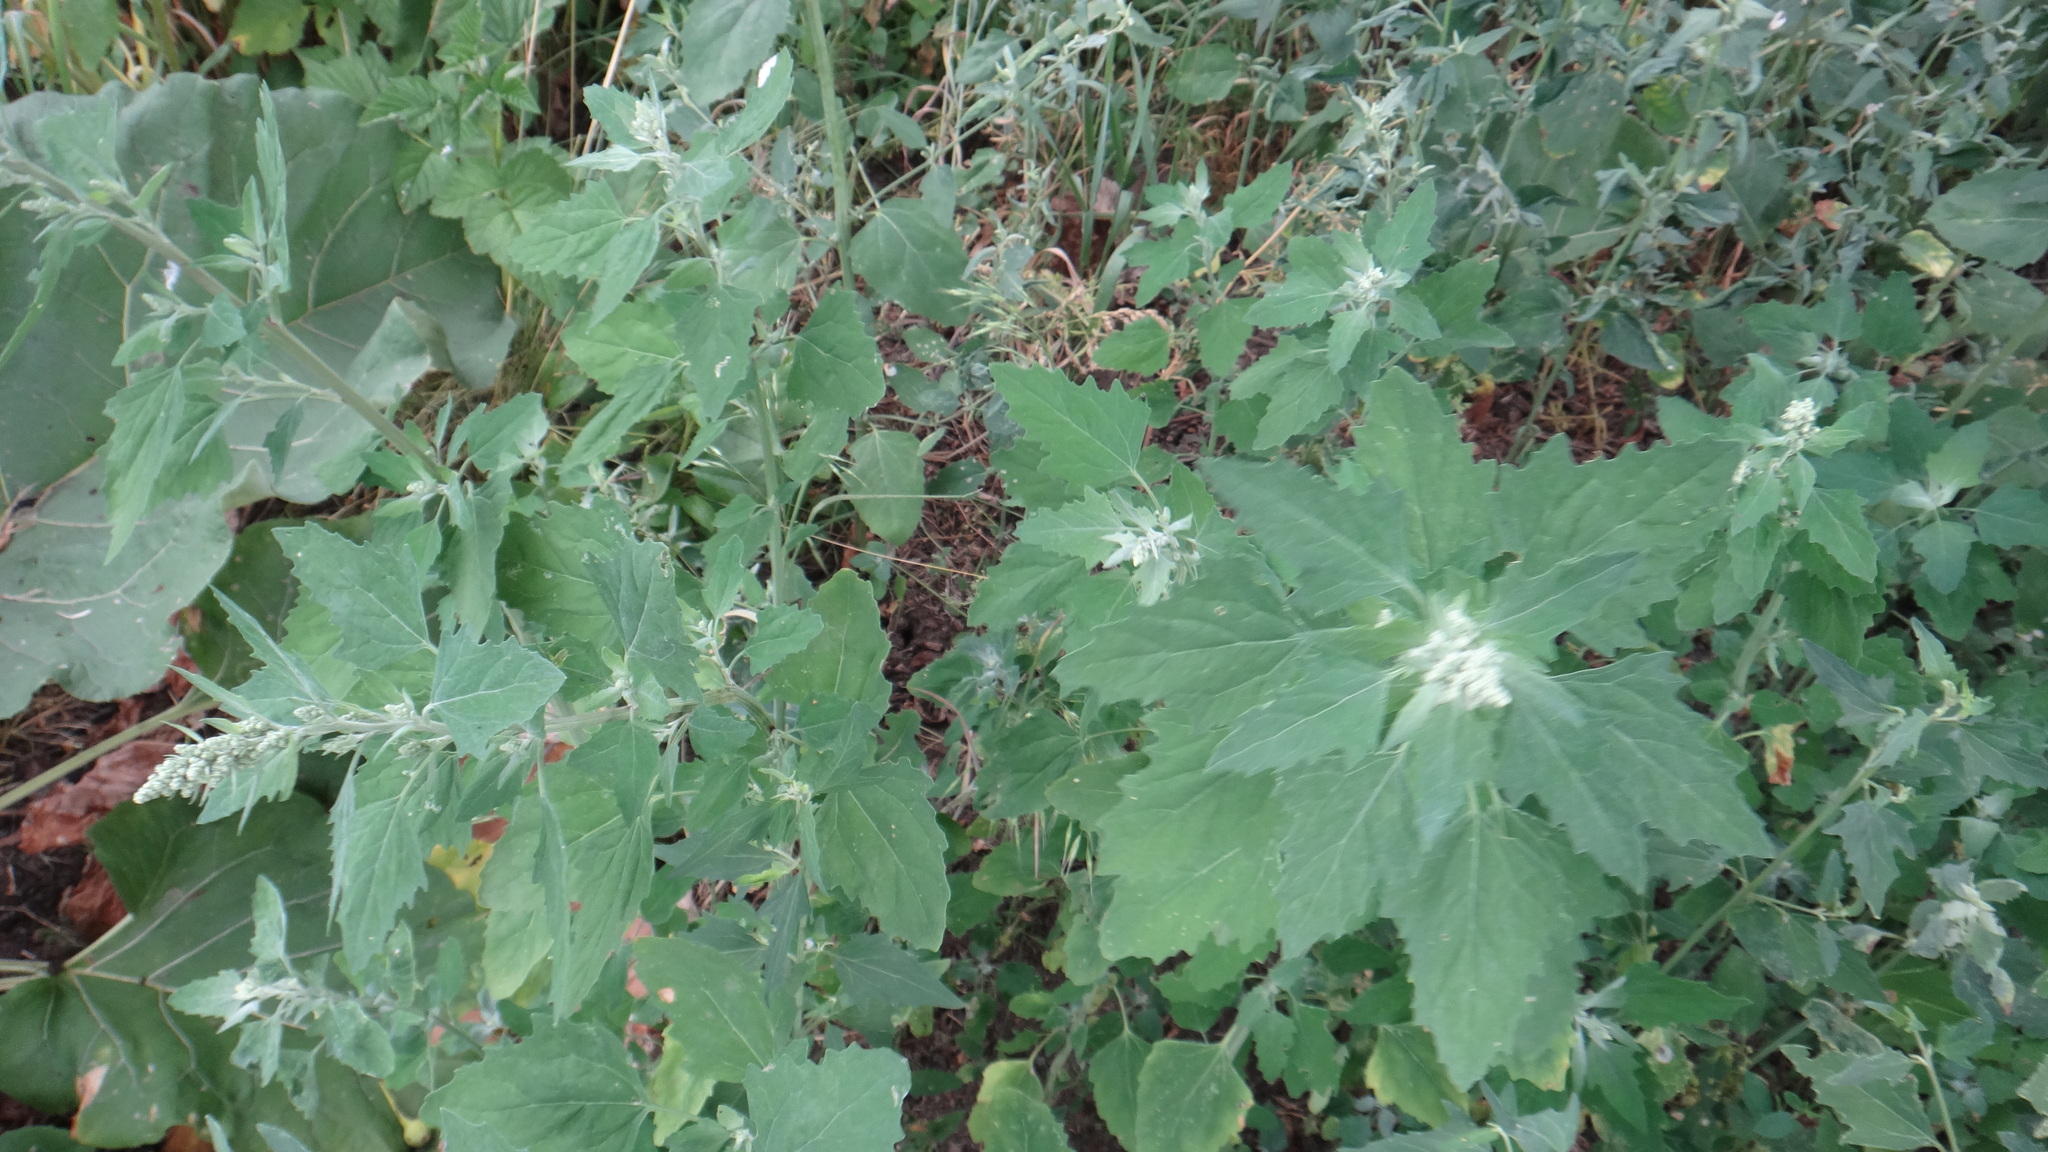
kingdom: Plantae
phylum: Tracheophyta
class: Magnoliopsida
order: Caryophyllales
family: Amaranthaceae
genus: Chenopodium
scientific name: Chenopodium album
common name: Fat-hen
